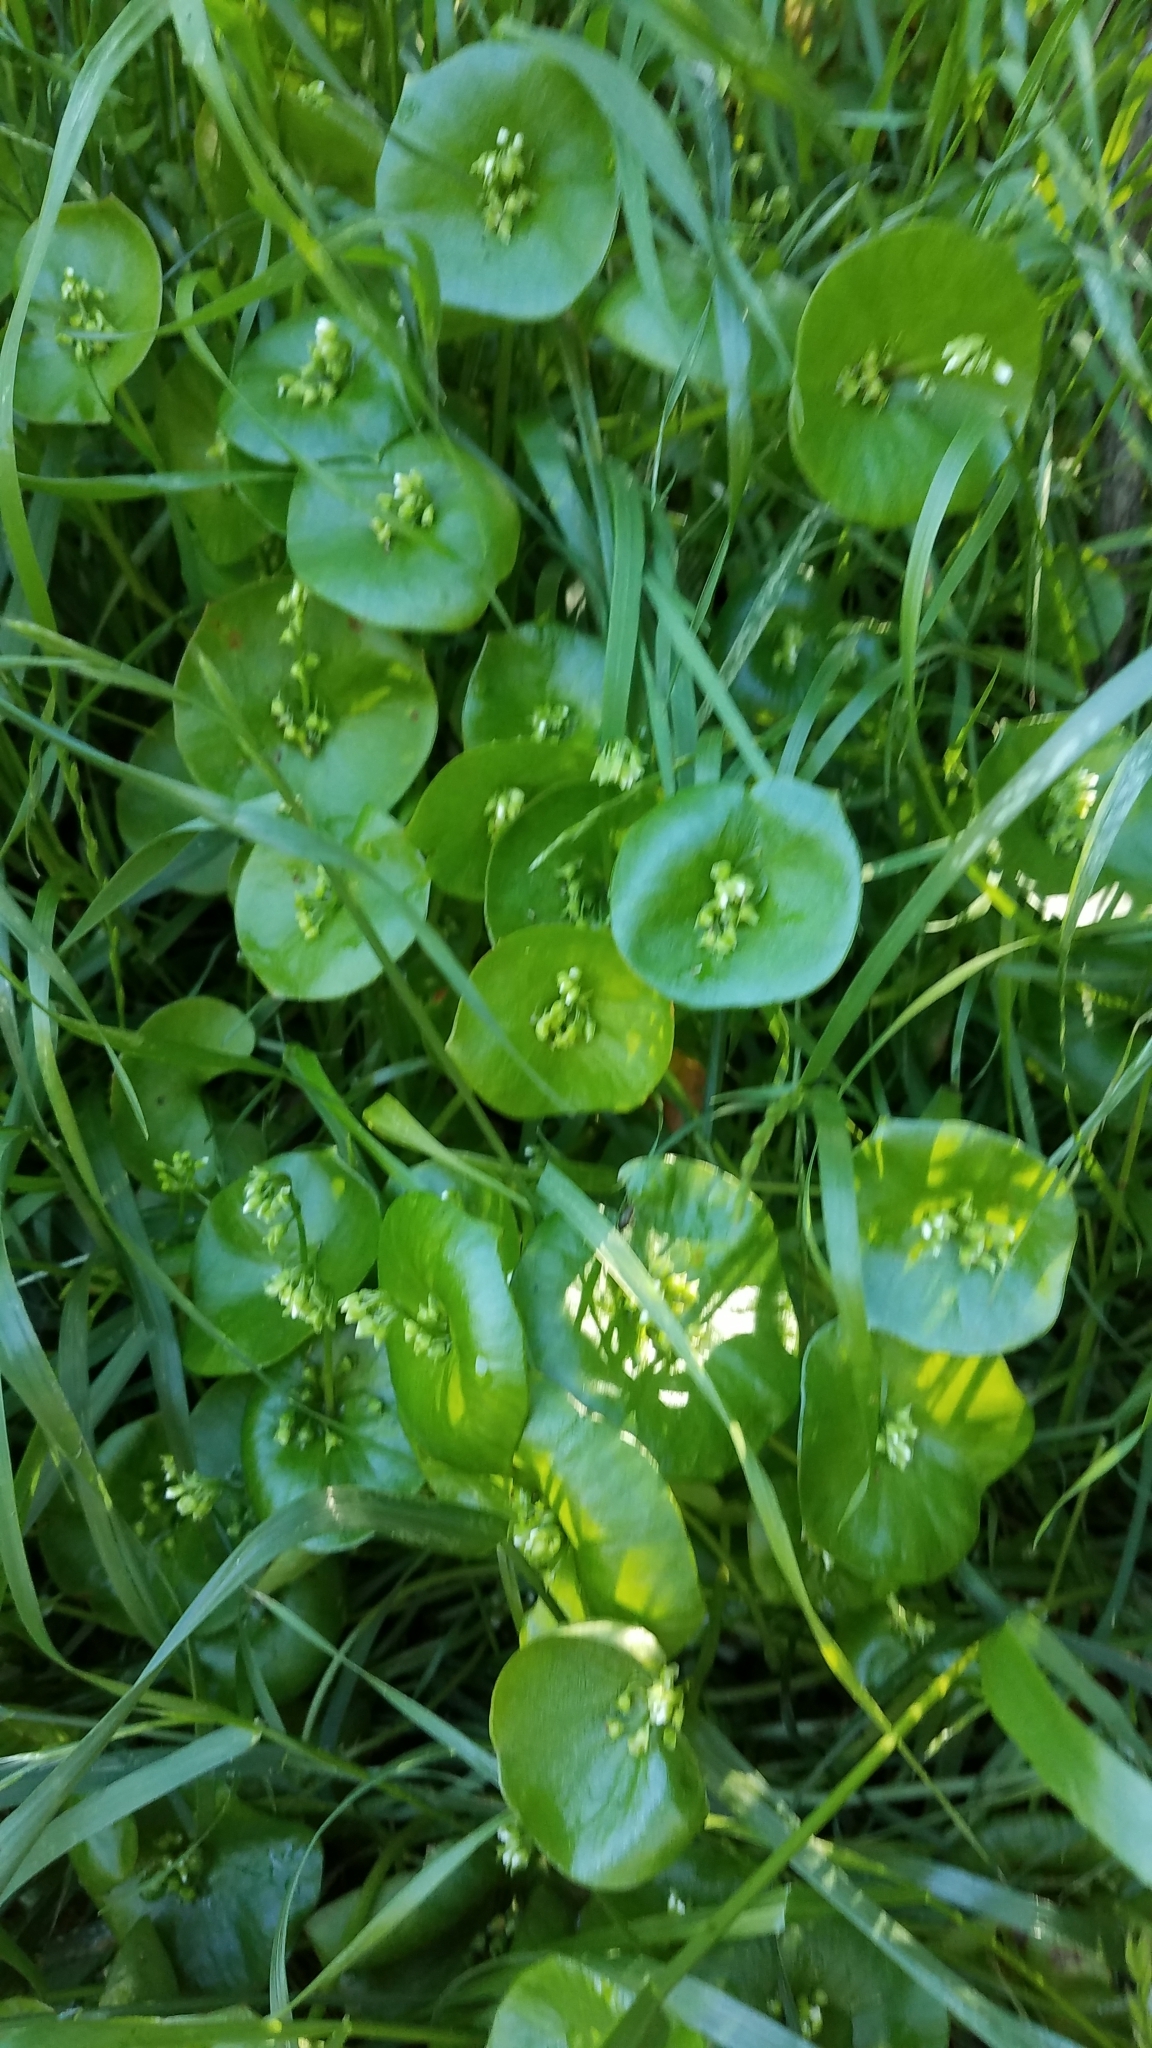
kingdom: Plantae
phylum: Tracheophyta
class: Magnoliopsida
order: Caryophyllales
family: Montiaceae
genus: Claytonia
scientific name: Claytonia perfoliata
